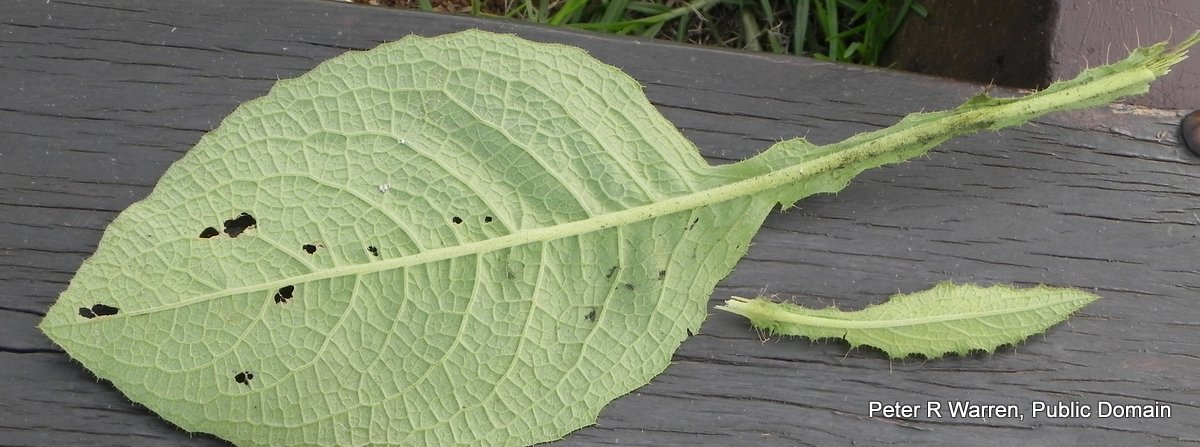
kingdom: Plantae
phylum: Tracheophyta
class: Magnoliopsida
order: Asterales
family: Asteraceae
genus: Berkheya
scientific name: Berkheya speciosa
